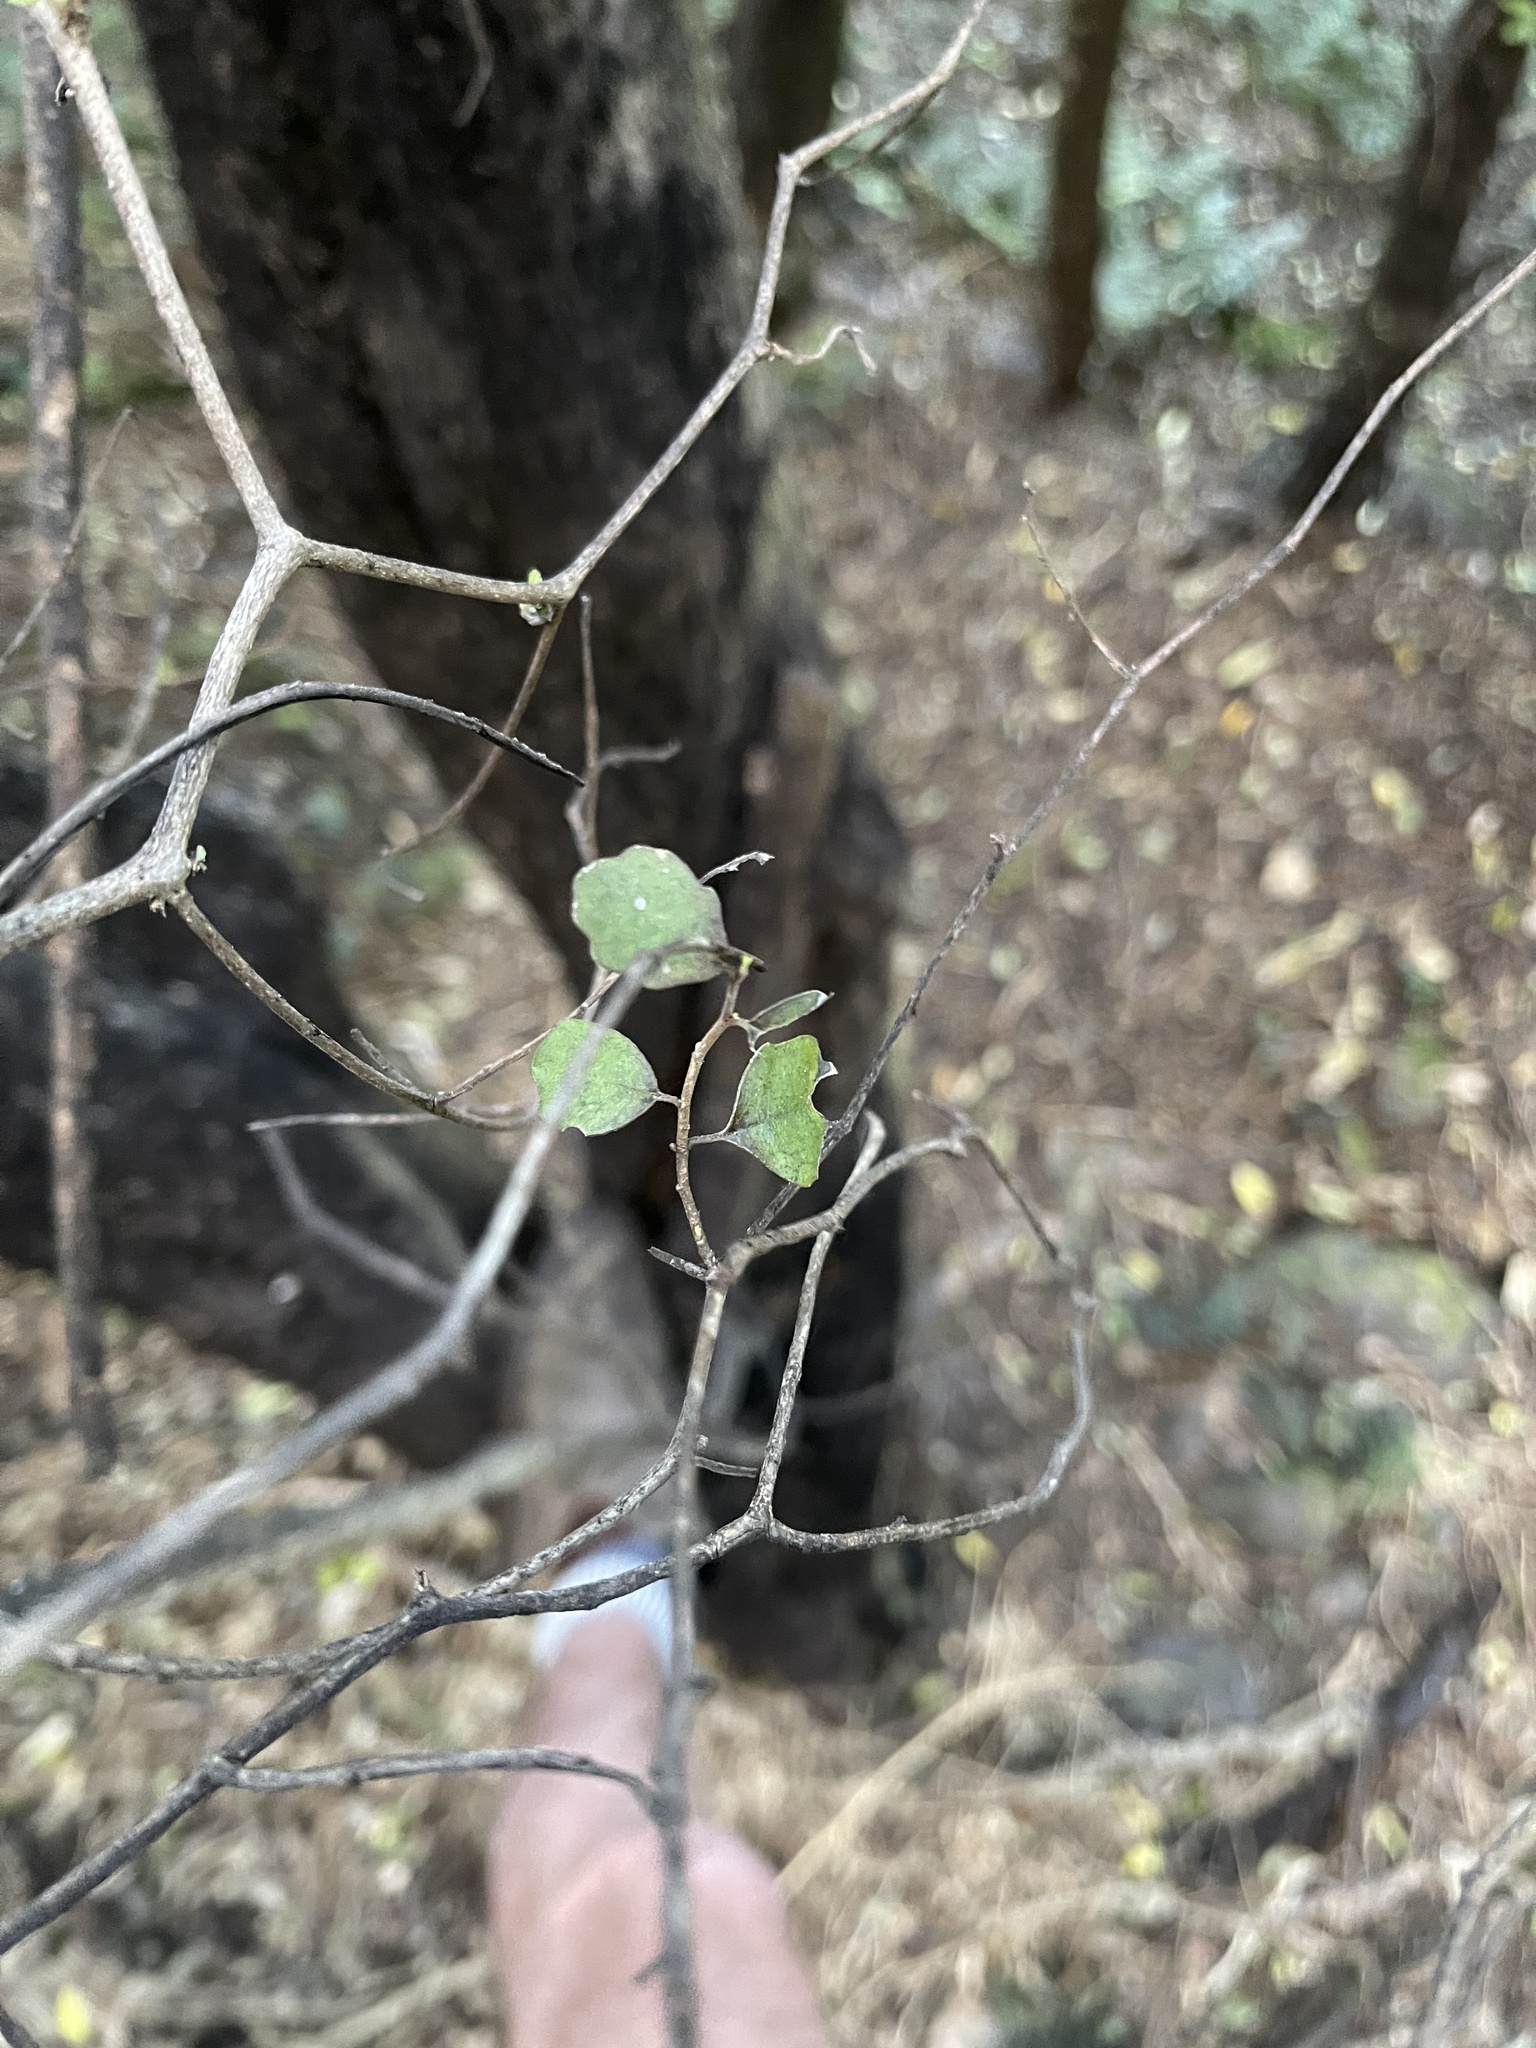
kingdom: Plantae
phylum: Tracheophyta
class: Magnoliopsida
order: Apiales
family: Pennantiaceae
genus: Pennantia
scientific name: Pennantia corymbosa
